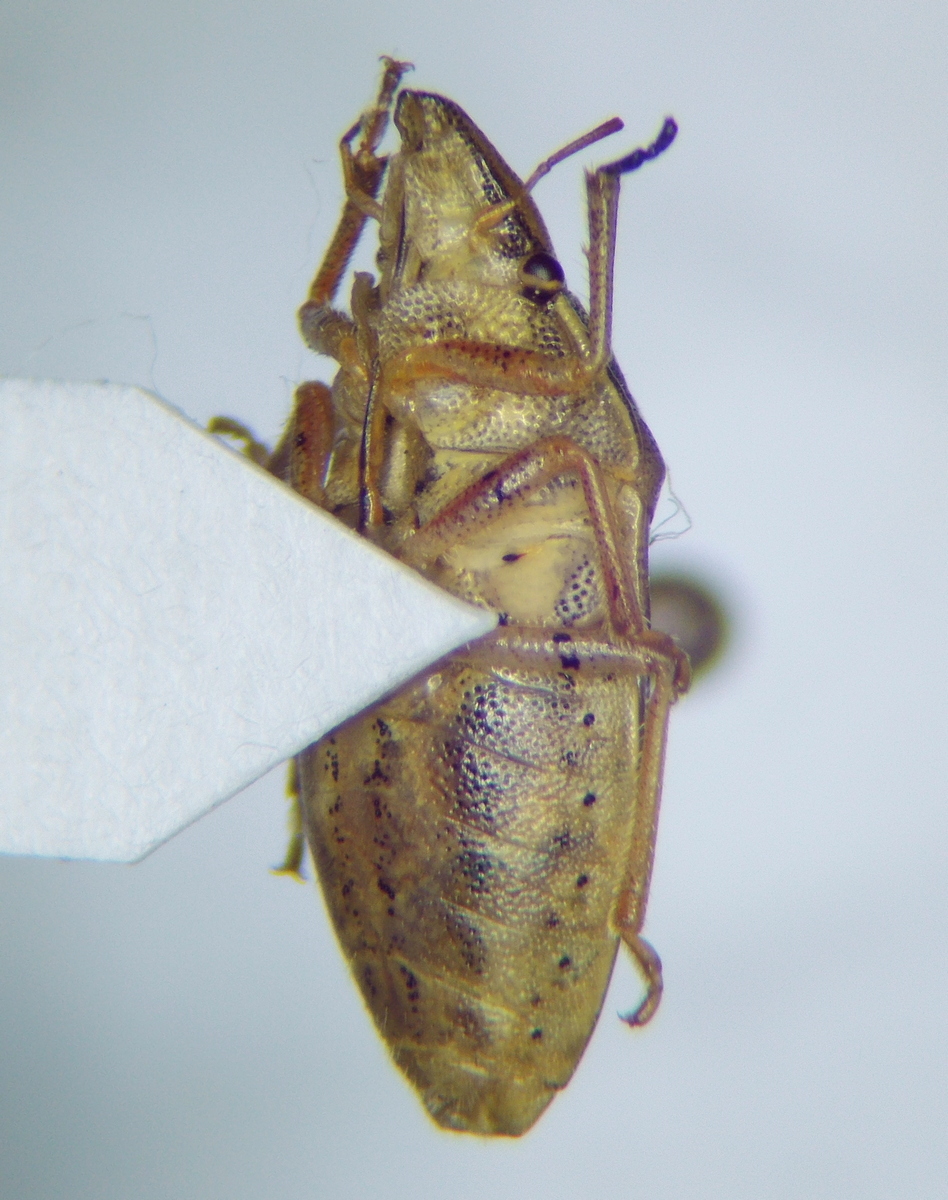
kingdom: Animalia
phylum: Arthropoda
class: Insecta
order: Hemiptera
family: Pentatomidae
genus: Aelia
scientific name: Aelia acuminata
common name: Bishop's mitre
